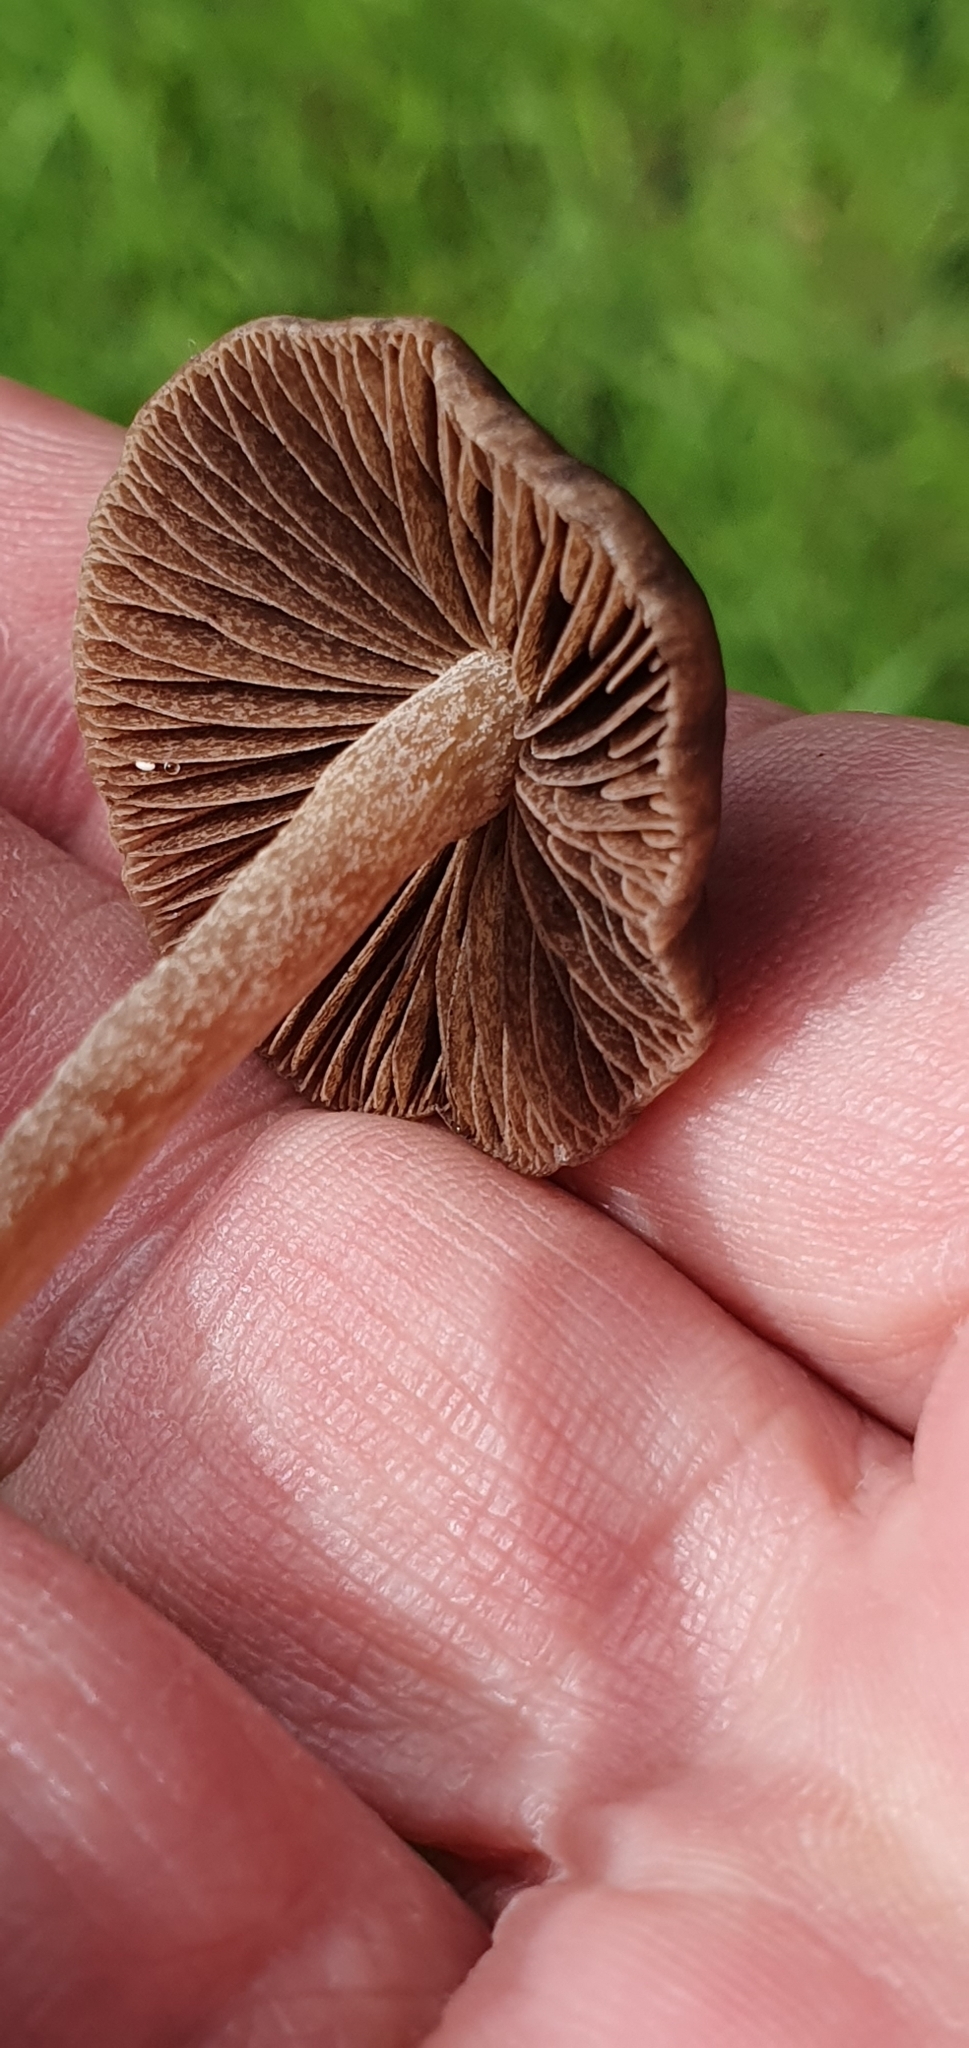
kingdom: Fungi
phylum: Basidiomycota
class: Agaricomycetes
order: Agaricales
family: Bolbitiaceae
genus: Panaeolina
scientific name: Panaeolina foenisecii
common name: Brown hay cap
